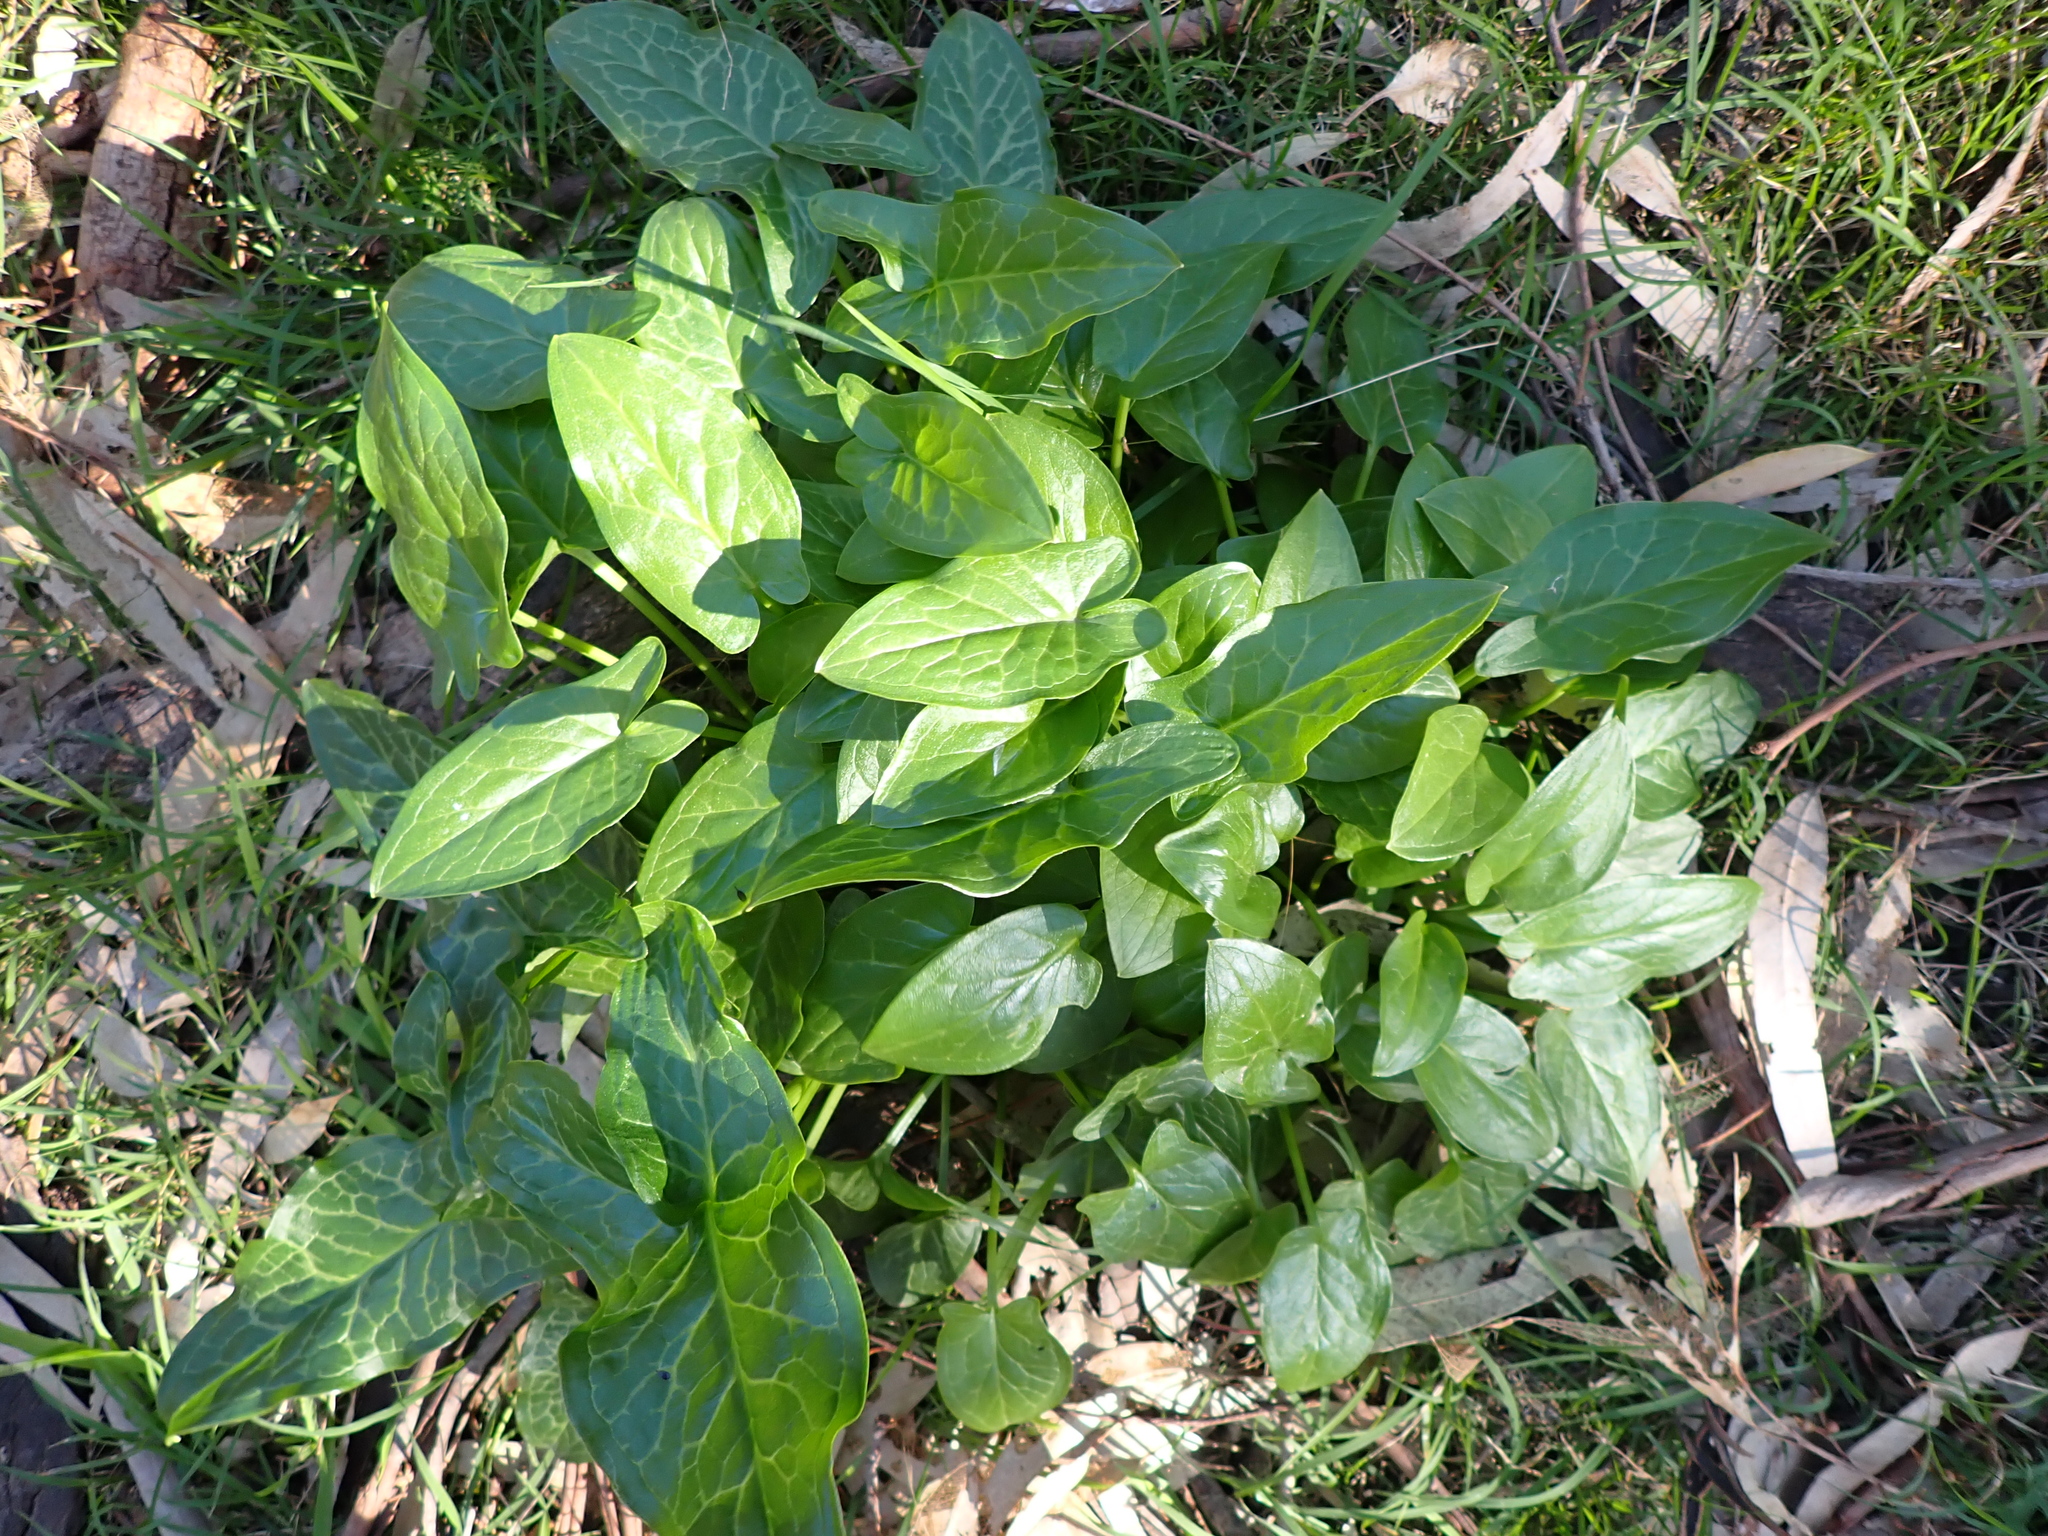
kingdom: Plantae
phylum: Tracheophyta
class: Liliopsida
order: Alismatales
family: Araceae
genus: Arum
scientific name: Arum italicum
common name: Italian lords-and-ladies
